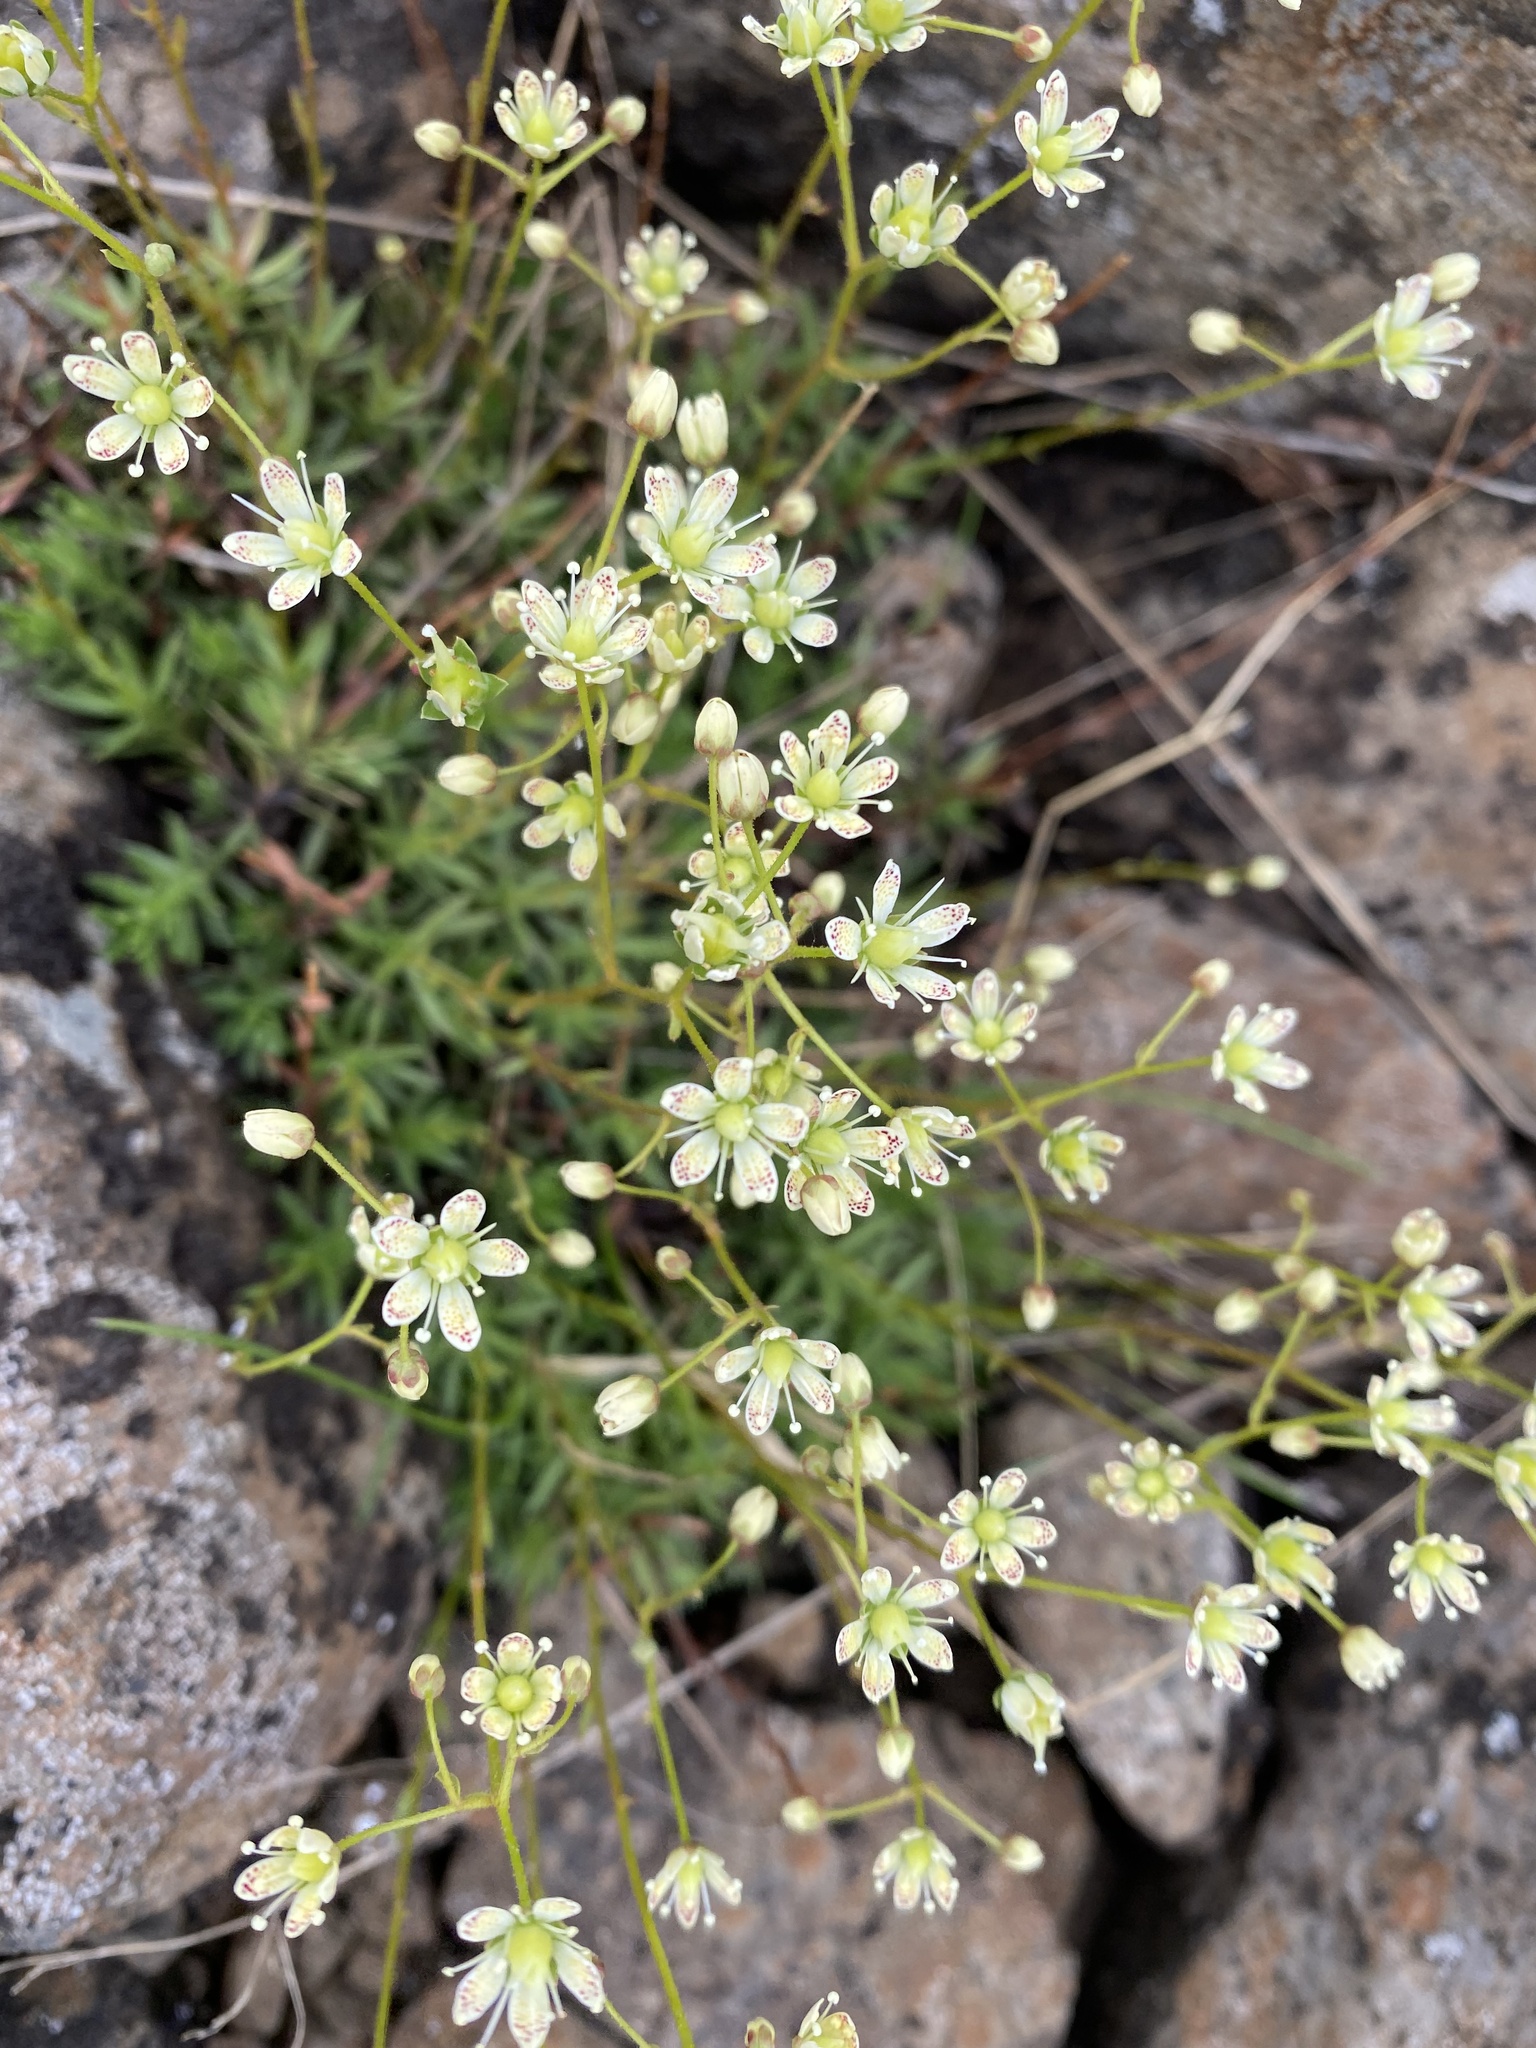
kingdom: Plantae
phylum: Tracheophyta
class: Magnoliopsida
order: Saxifragales
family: Saxifragaceae
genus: Saxifraga
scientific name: Saxifraga
